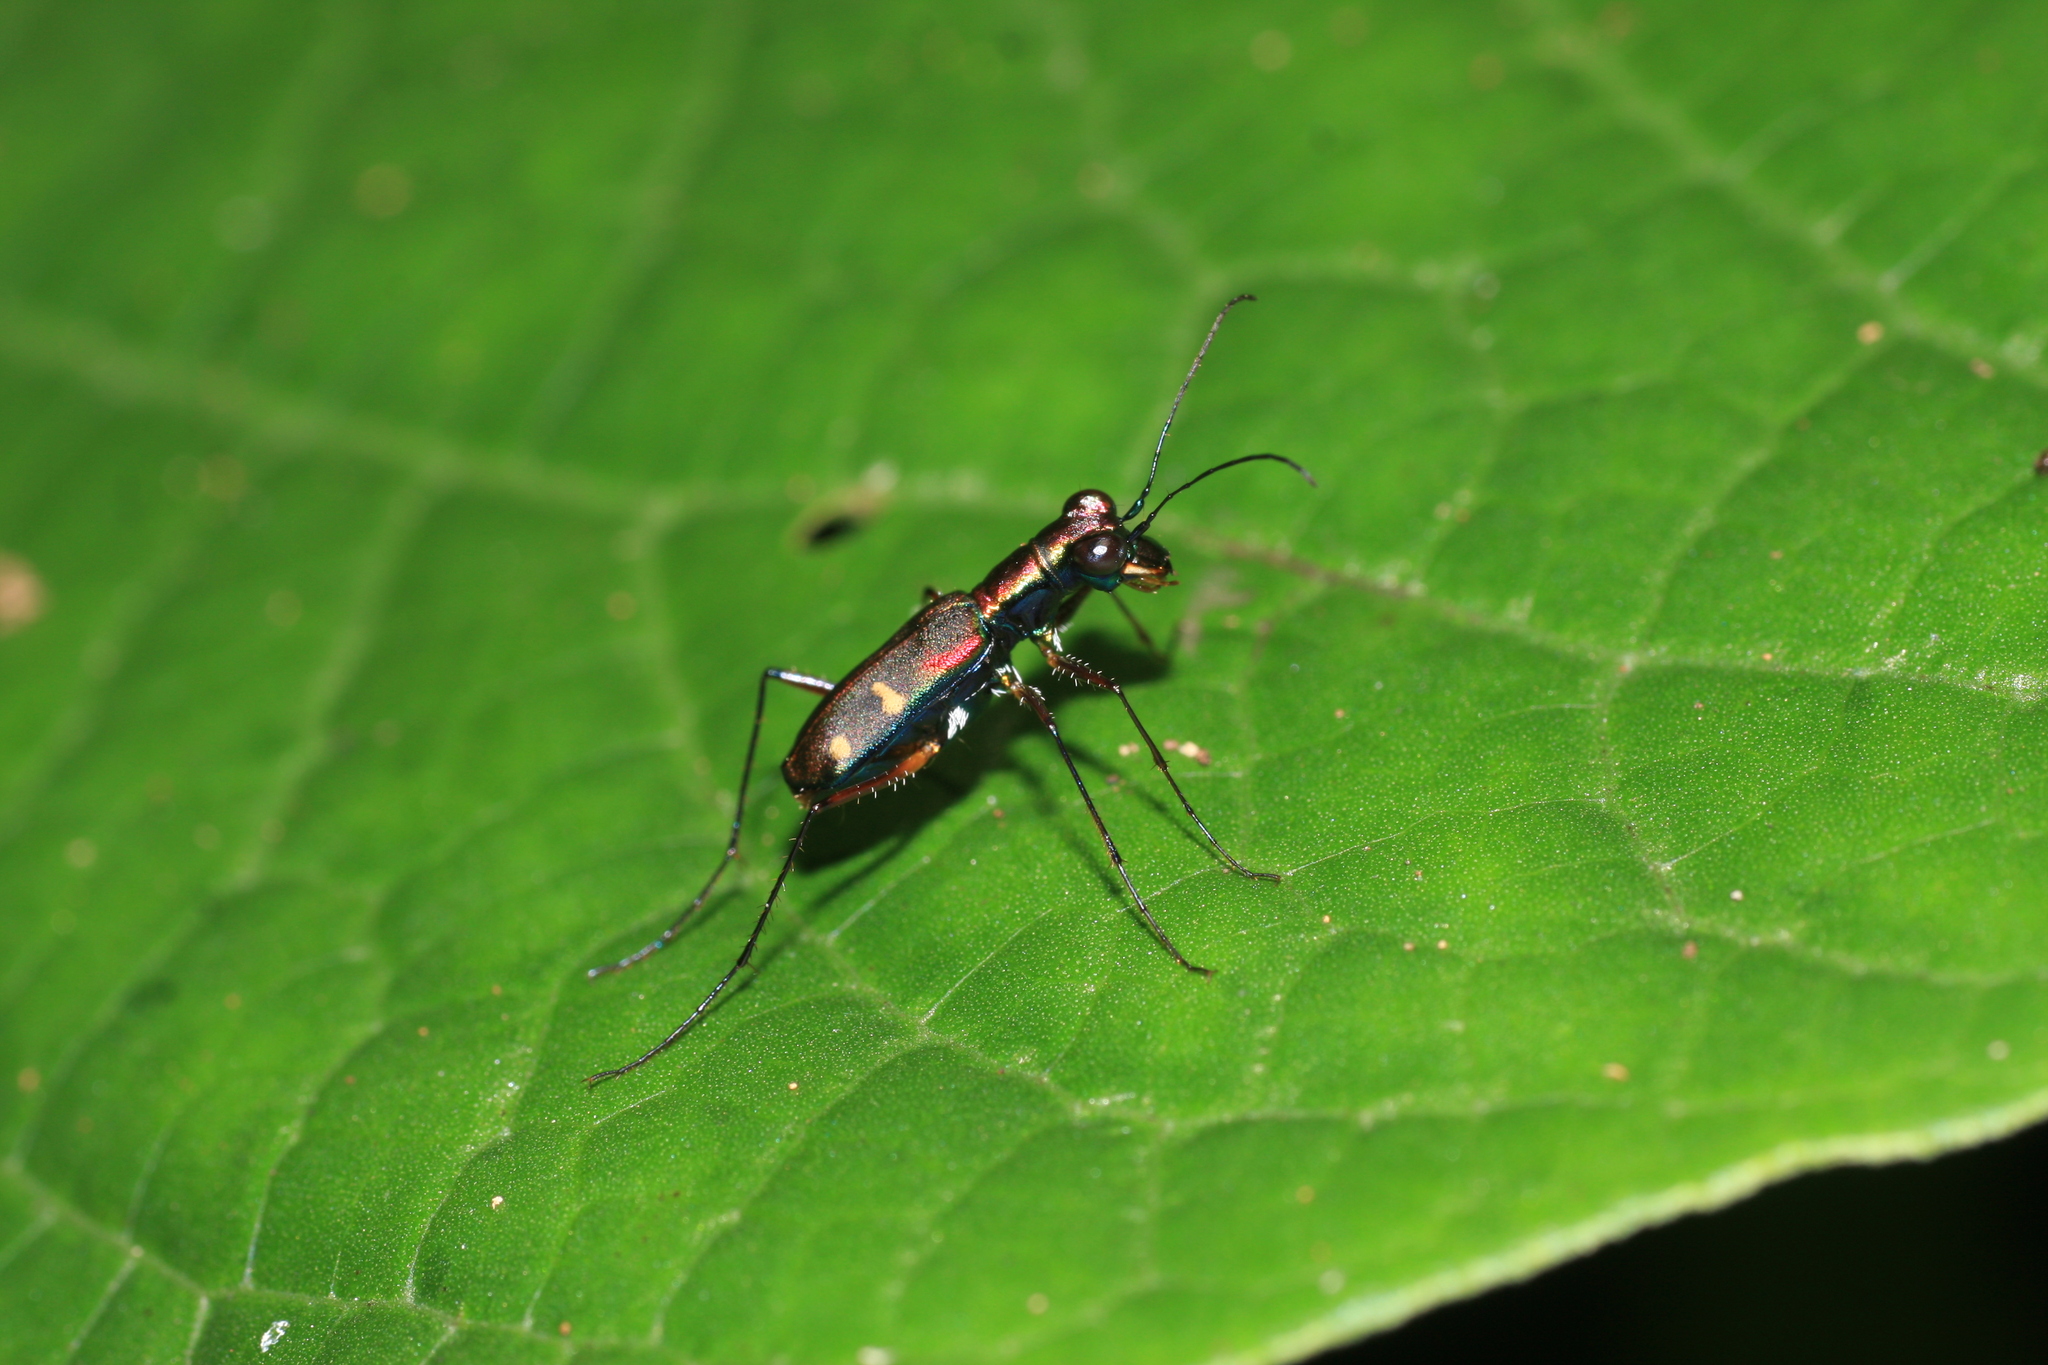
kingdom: Animalia
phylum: Arthropoda
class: Insecta
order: Coleoptera
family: Carabidae
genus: Jansenia
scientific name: Jansenia stuprata
